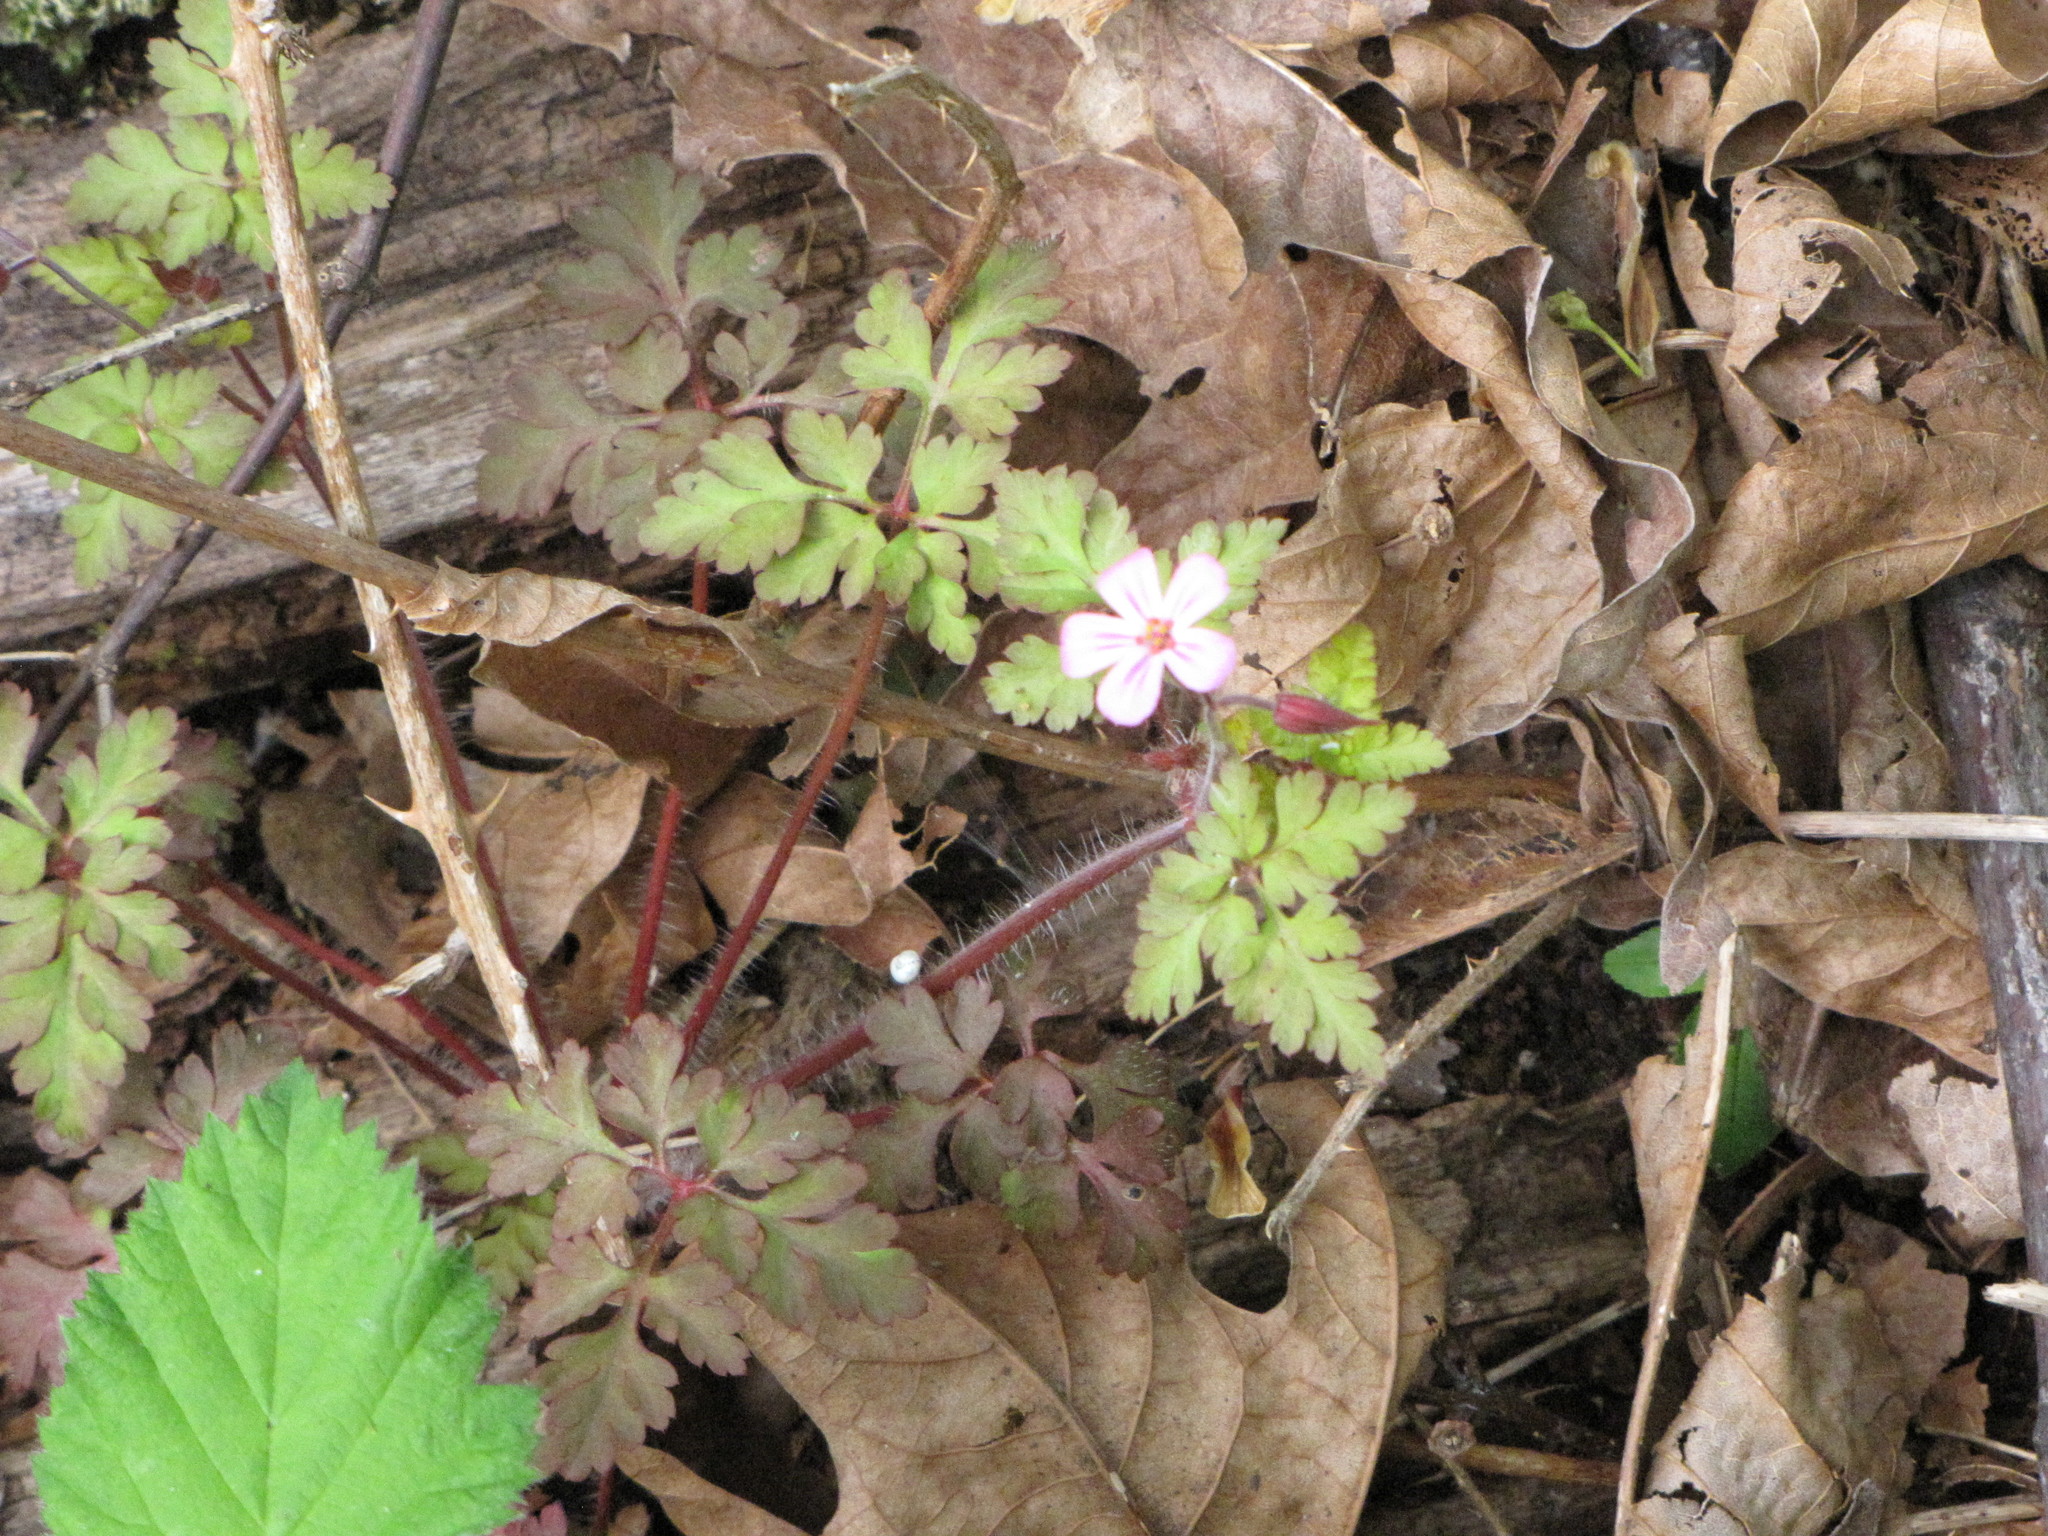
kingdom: Plantae
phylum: Tracheophyta
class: Magnoliopsida
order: Geraniales
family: Geraniaceae
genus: Geranium
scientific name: Geranium robertianum
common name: Herb-robert
